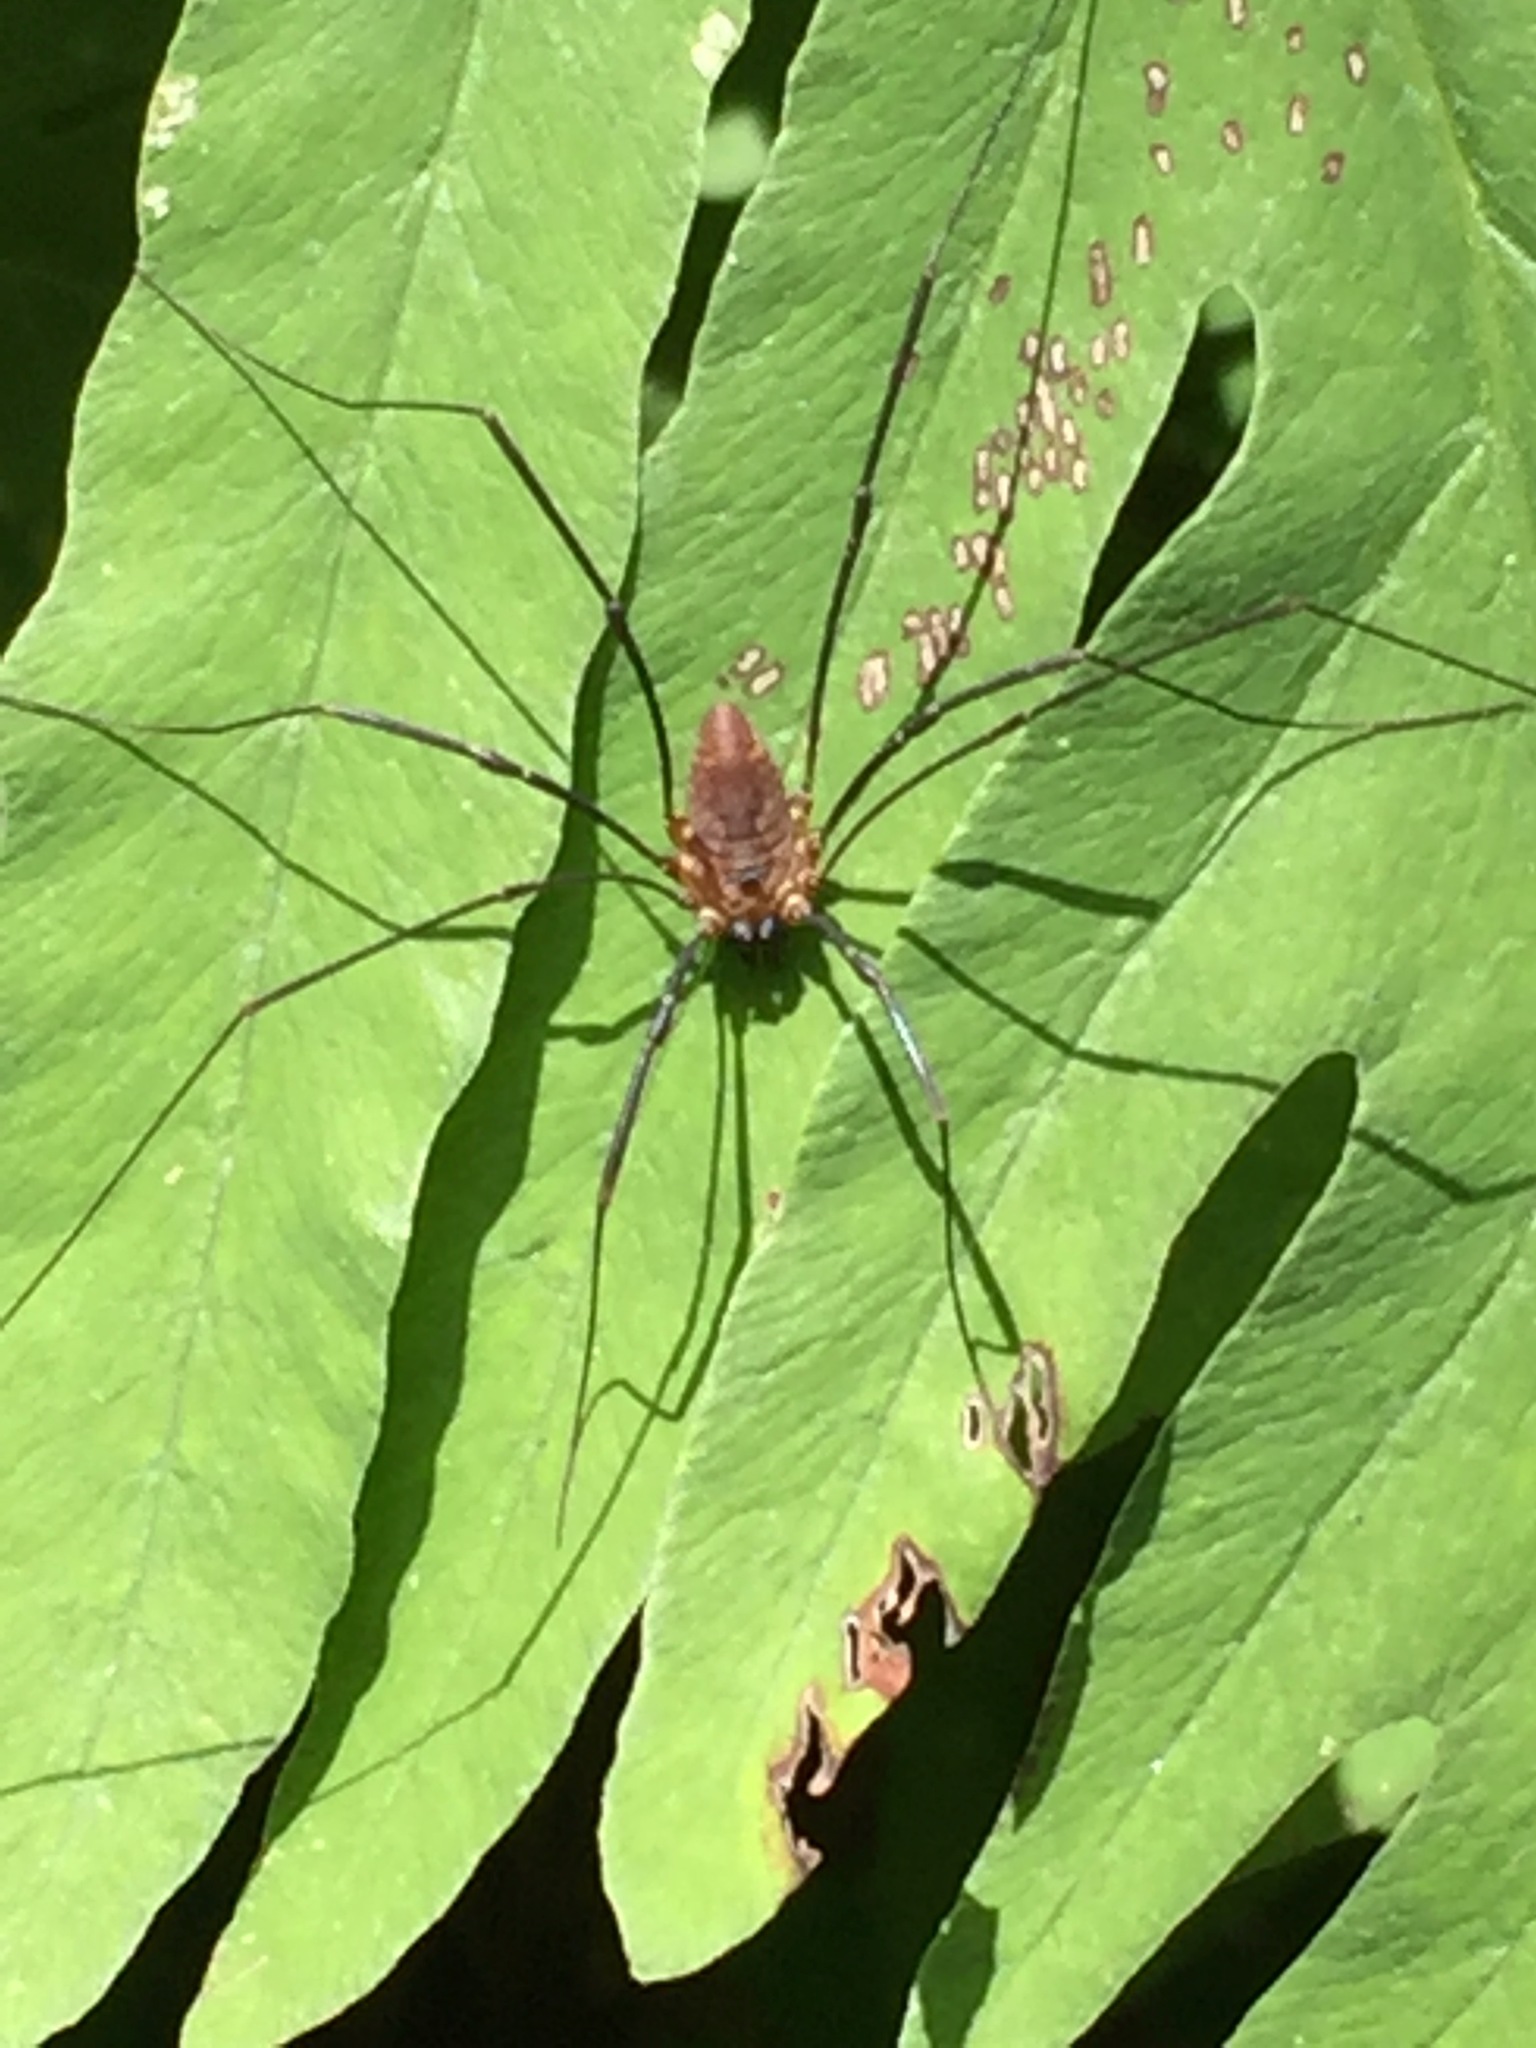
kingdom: Animalia
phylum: Arthropoda
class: Arachnida
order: Opiliones
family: Sclerosomatidae
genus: Leiobunum
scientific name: Leiobunum calcar
